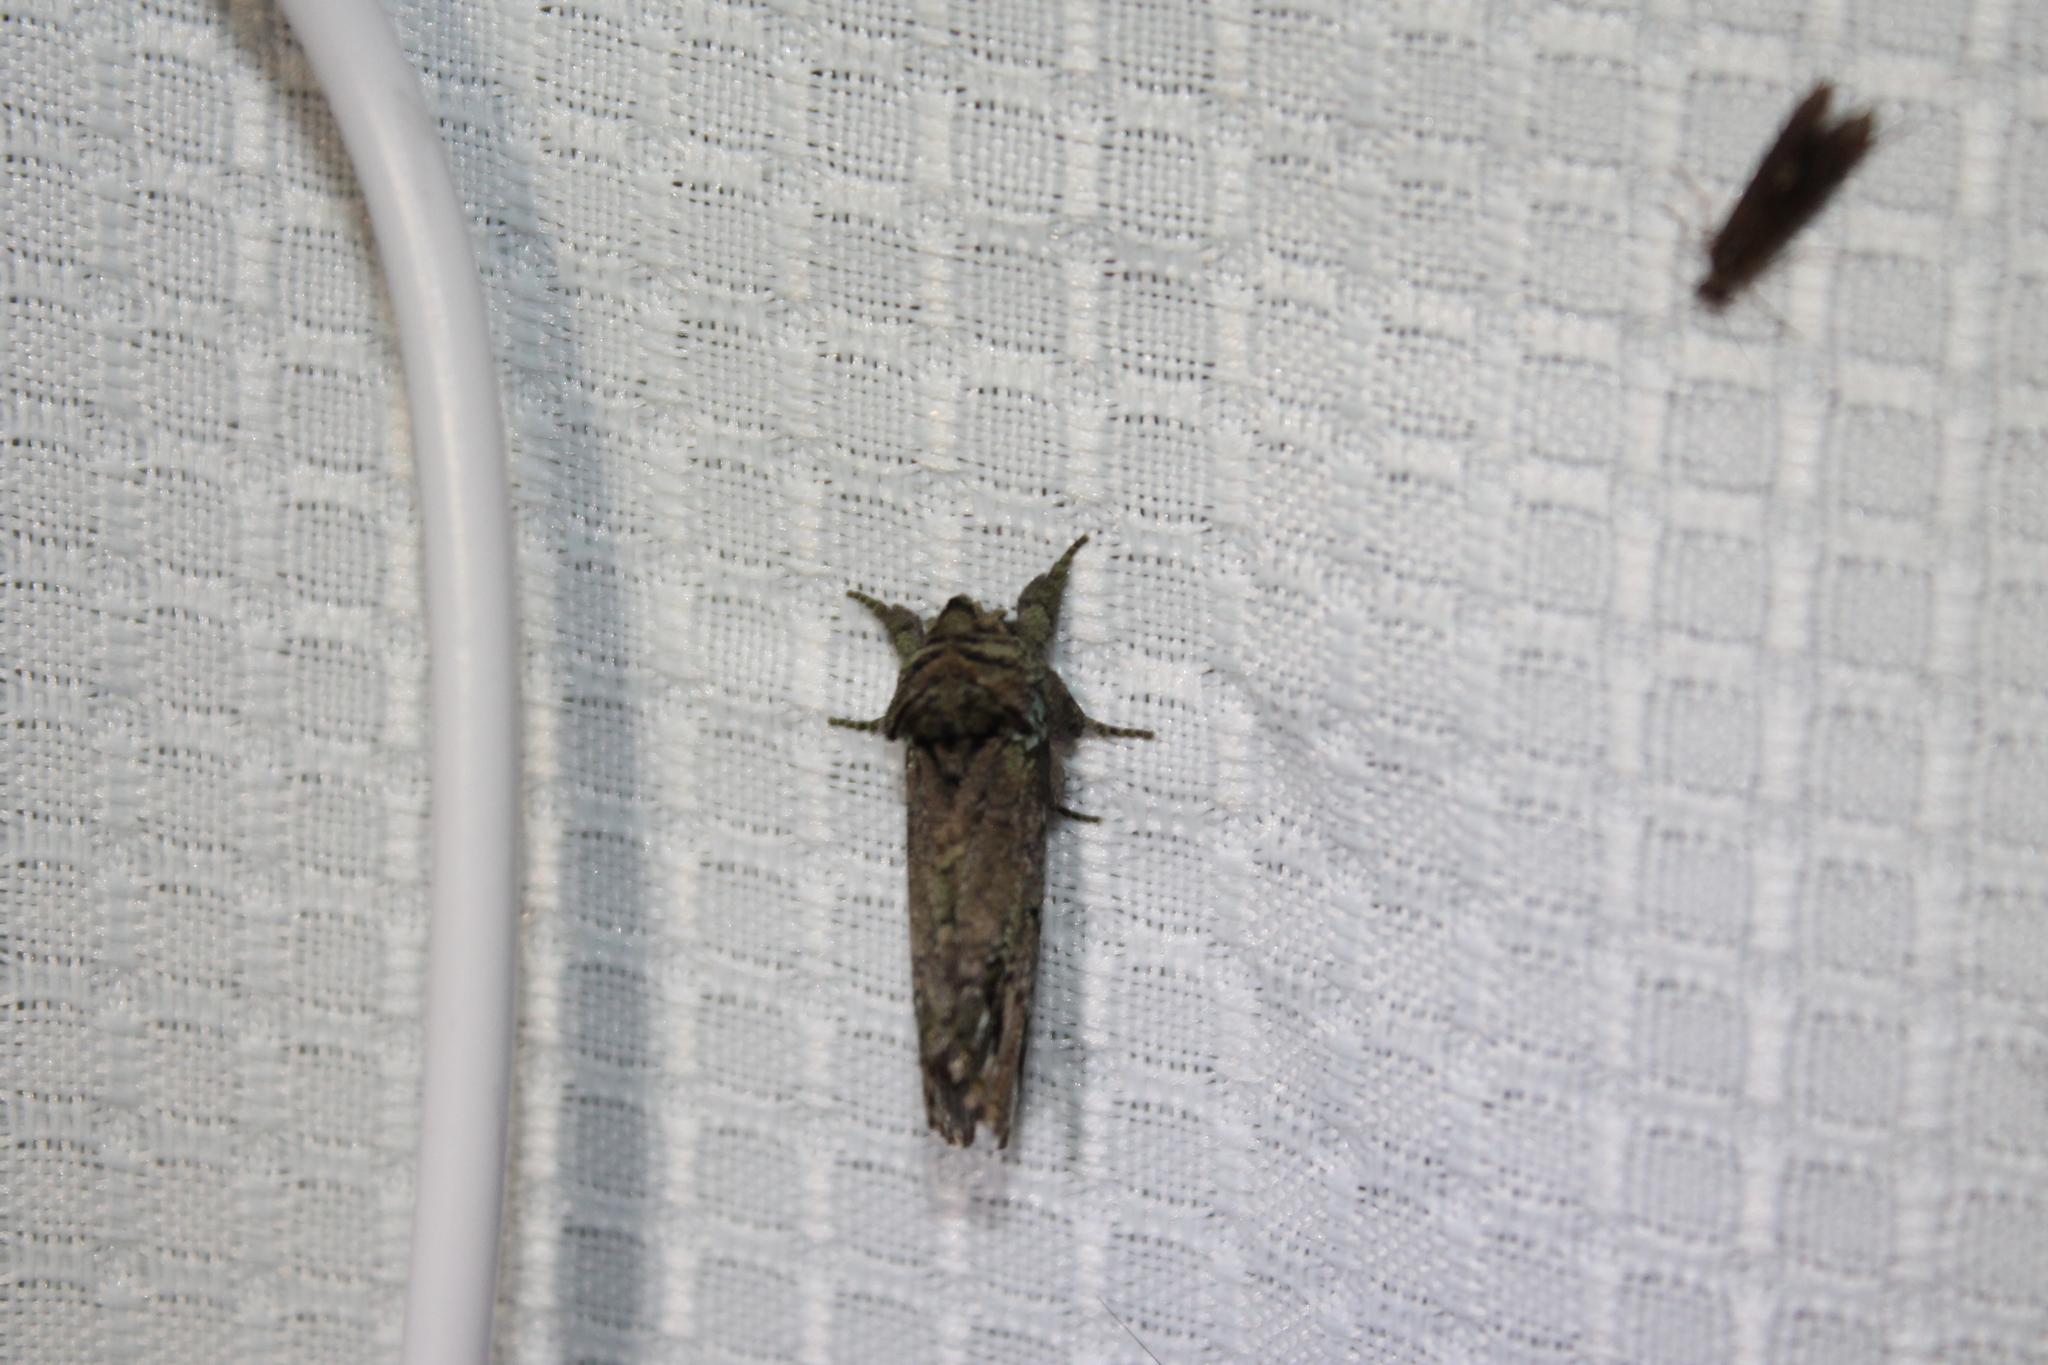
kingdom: Animalia
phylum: Arthropoda
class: Insecta
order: Lepidoptera
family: Notodontidae
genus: Schizura
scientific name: Schizura
